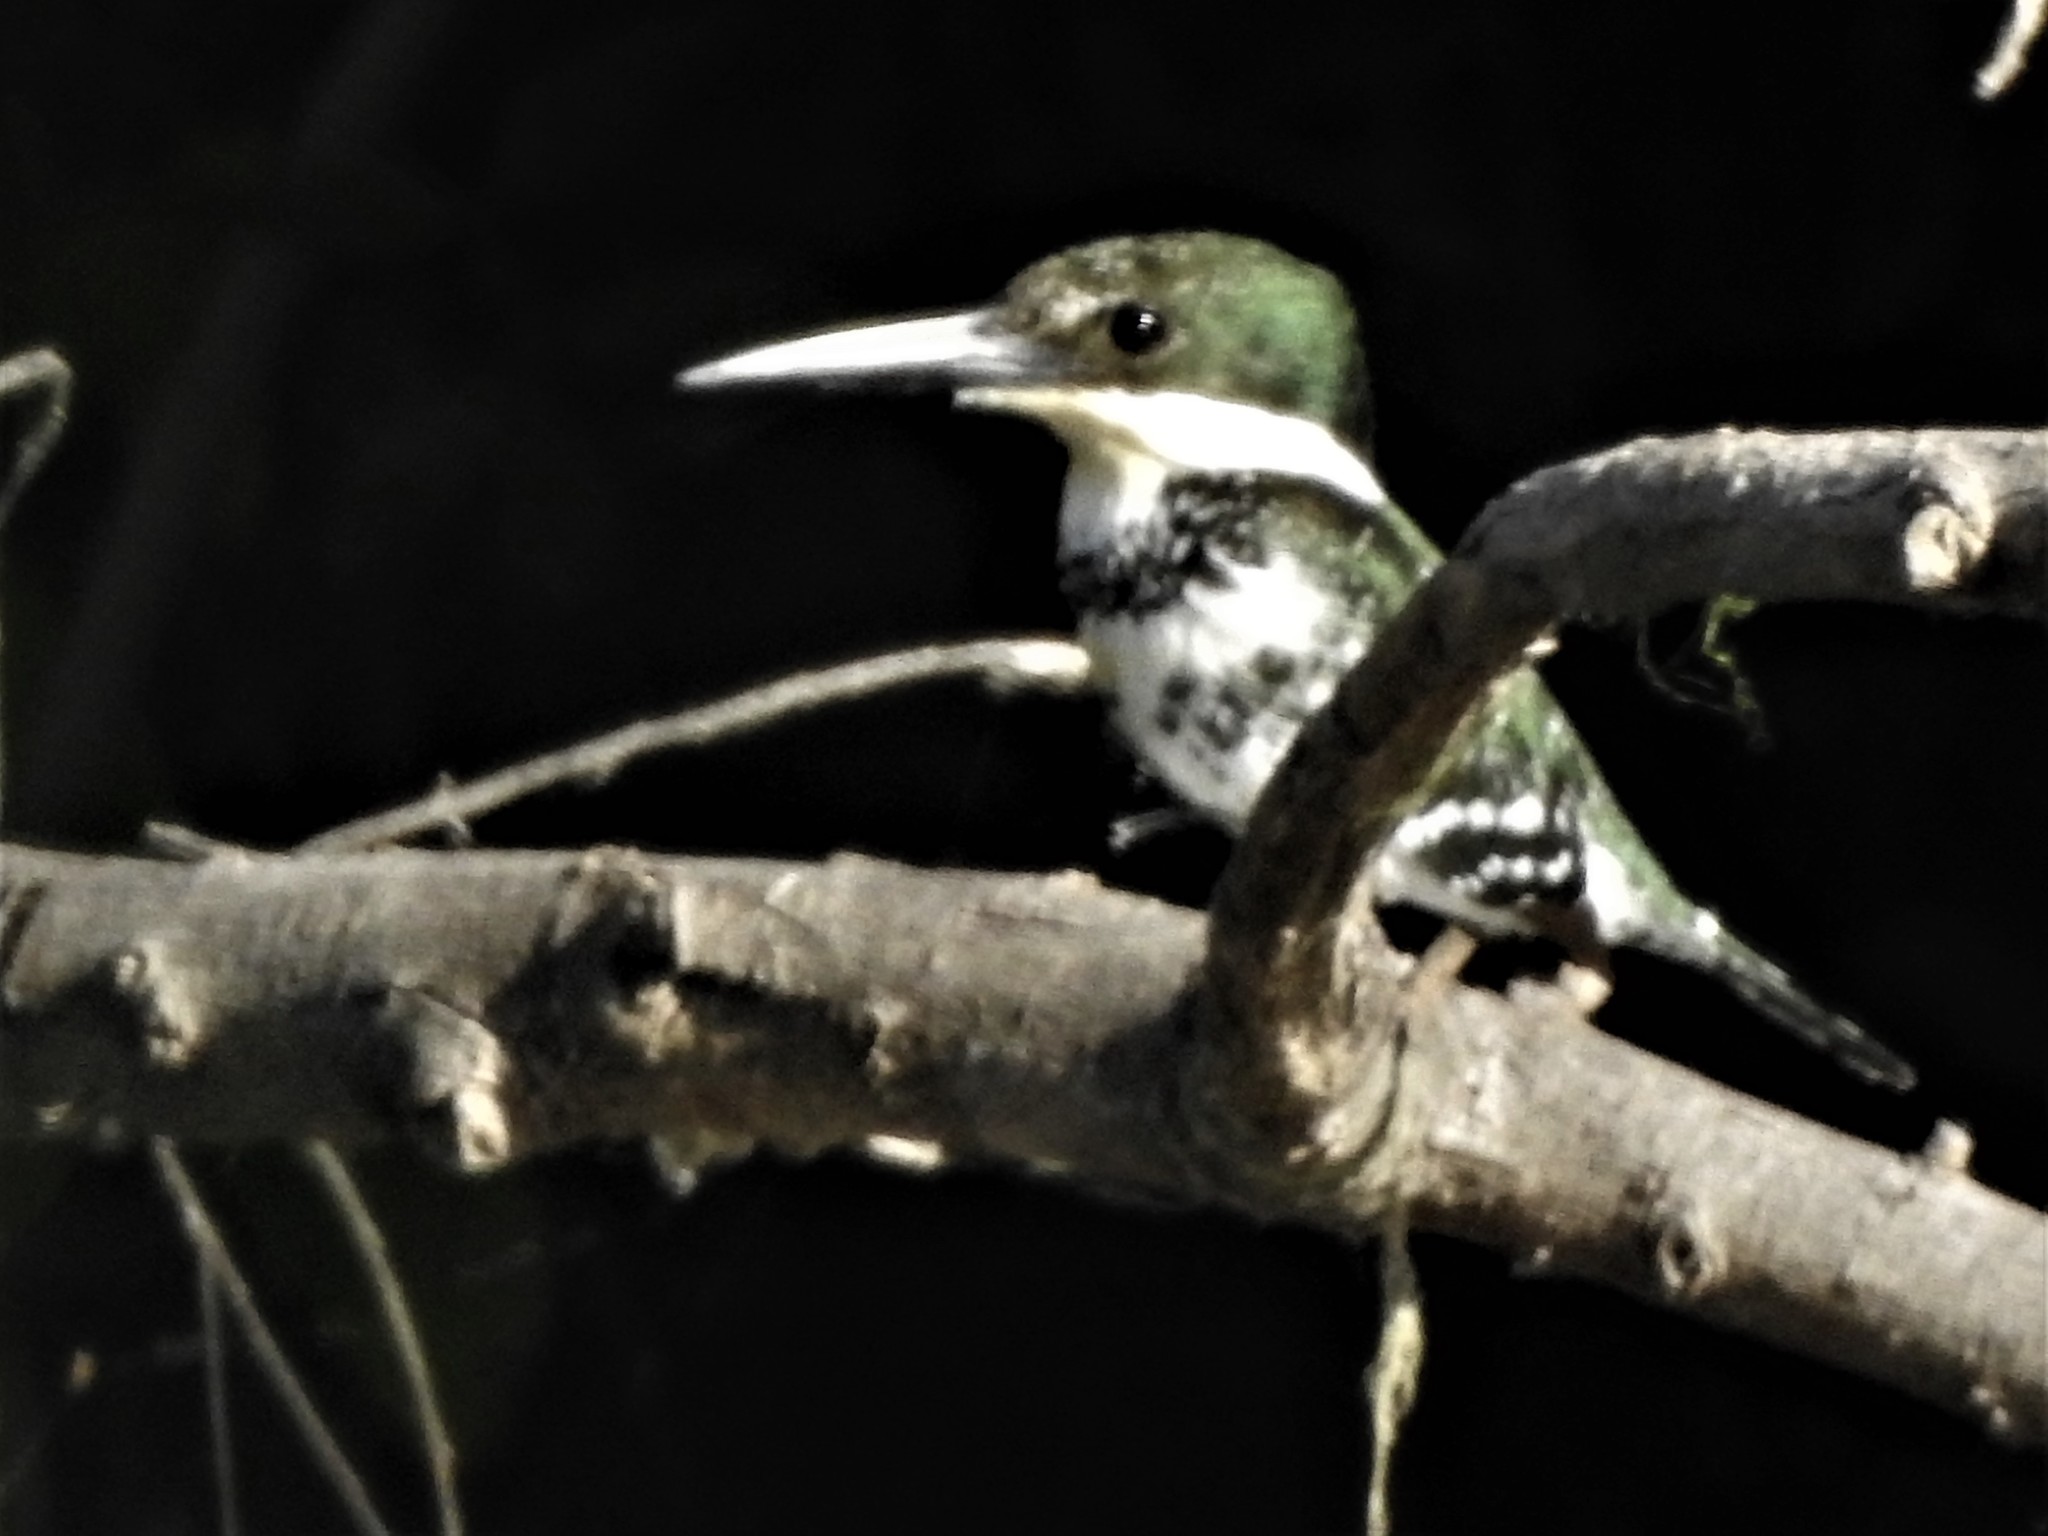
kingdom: Animalia
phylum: Chordata
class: Aves
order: Coraciiformes
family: Alcedinidae
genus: Chloroceryle
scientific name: Chloroceryle americana
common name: Green kingfisher
